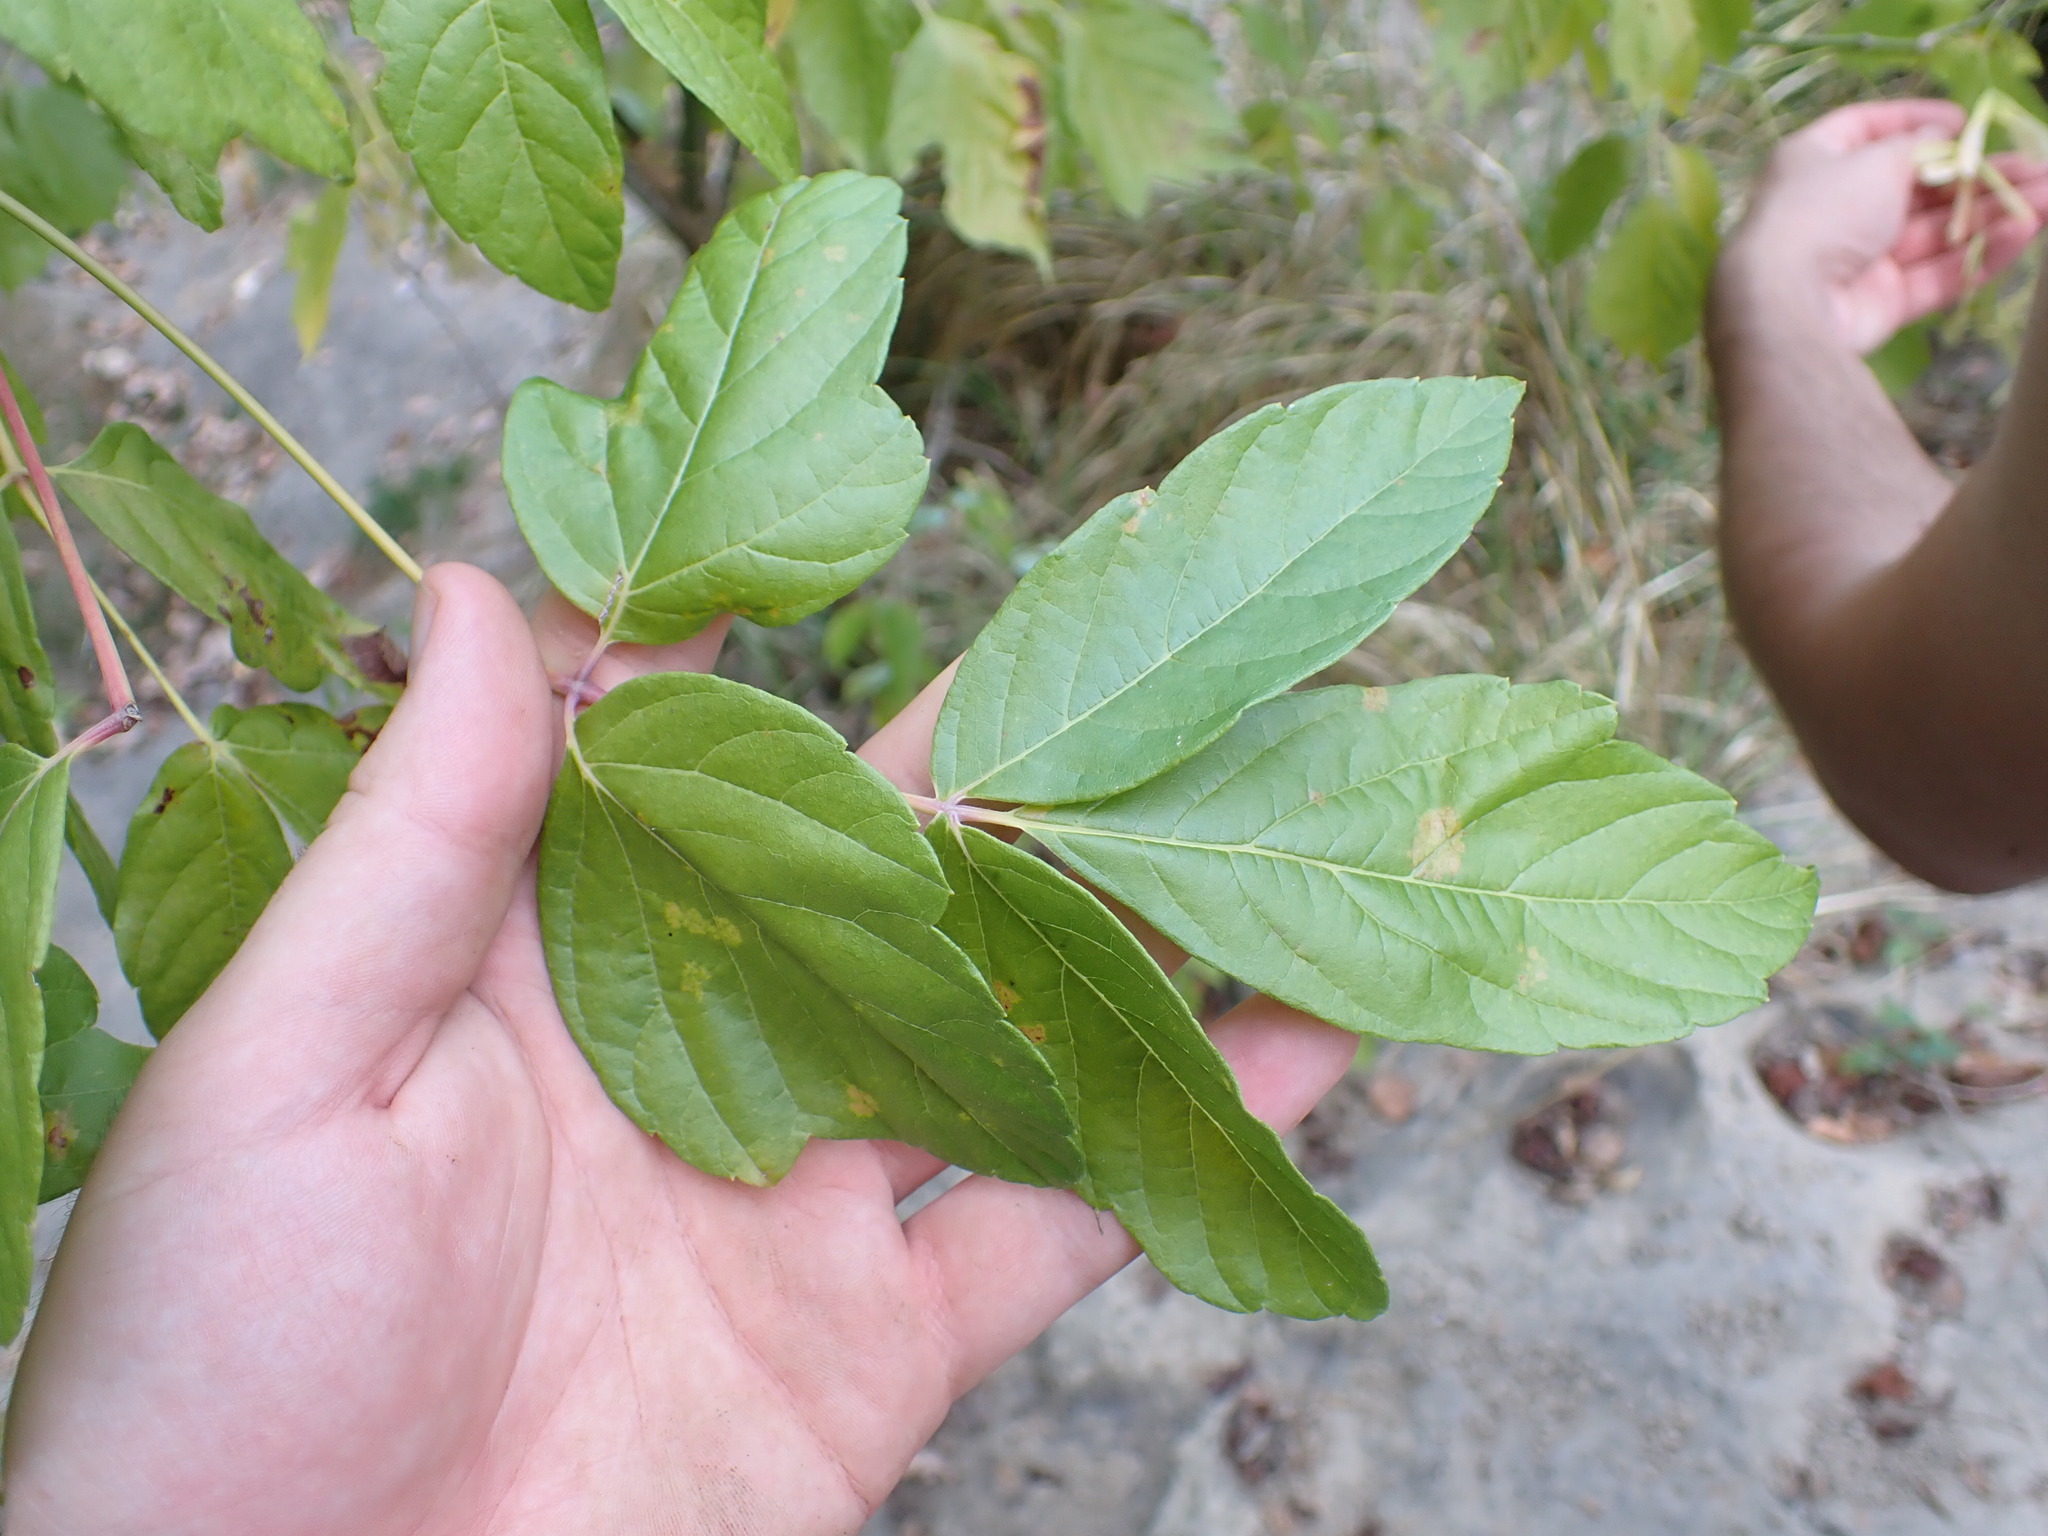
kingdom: Plantae
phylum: Tracheophyta
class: Magnoliopsida
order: Sapindales
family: Sapindaceae
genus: Acer
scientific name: Acer negundo
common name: Ashleaf maple
